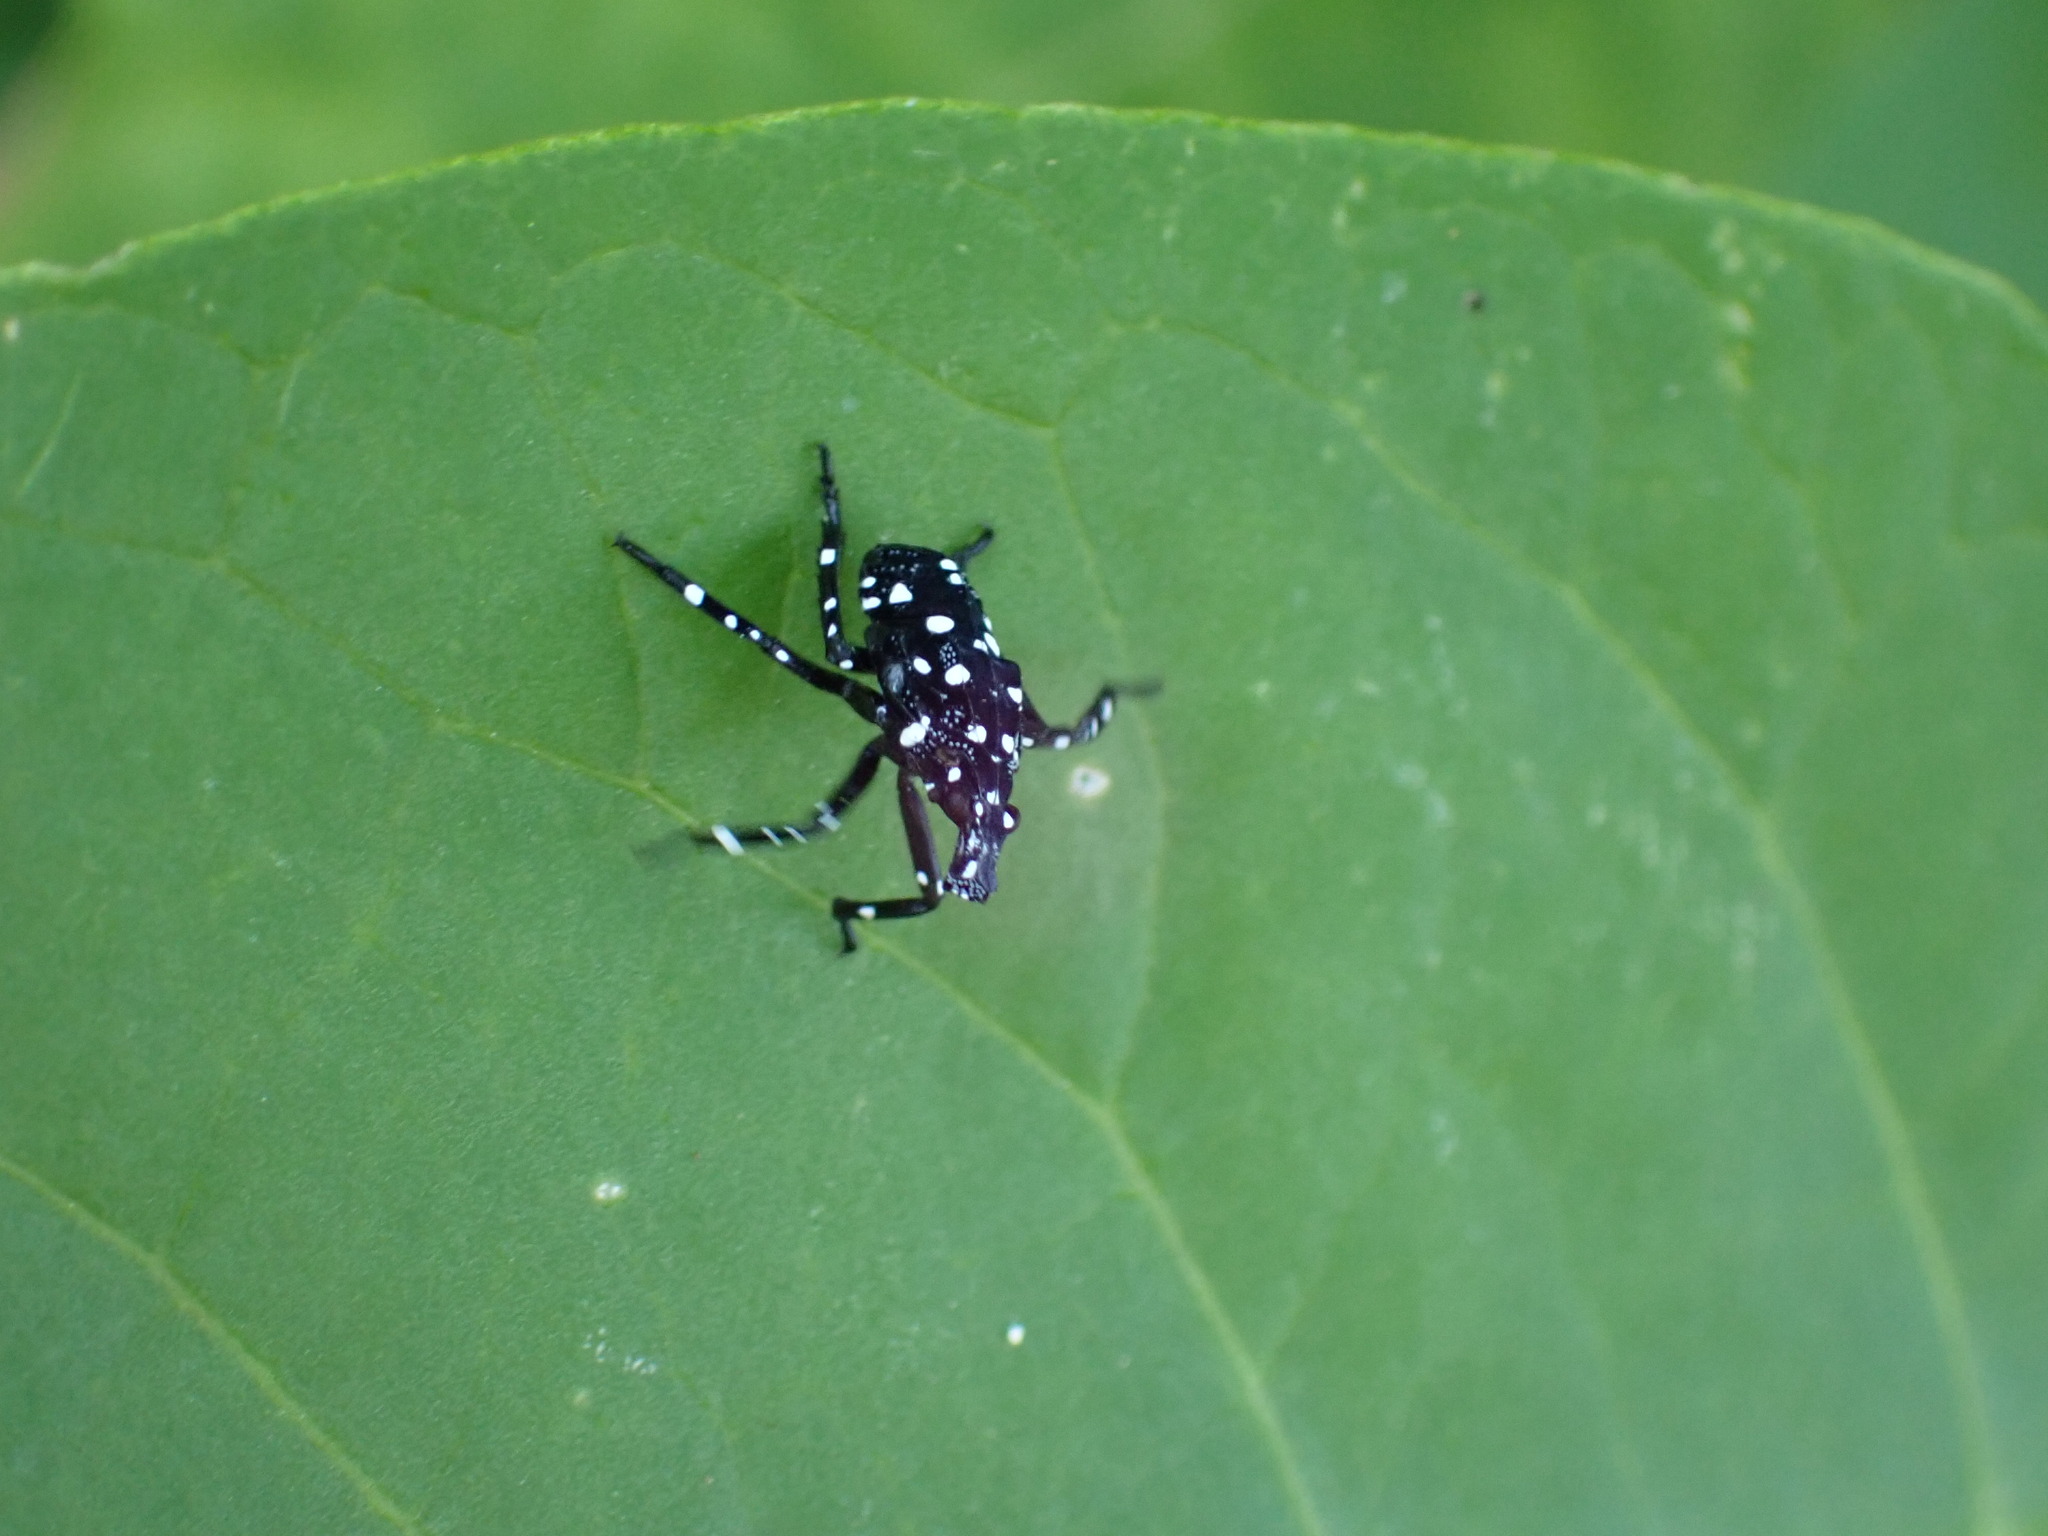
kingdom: Animalia
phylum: Arthropoda
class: Insecta
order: Hemiptera
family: Fulgoridae
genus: Lycorma
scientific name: Lycorma delicatula
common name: Spotted lanternfly
